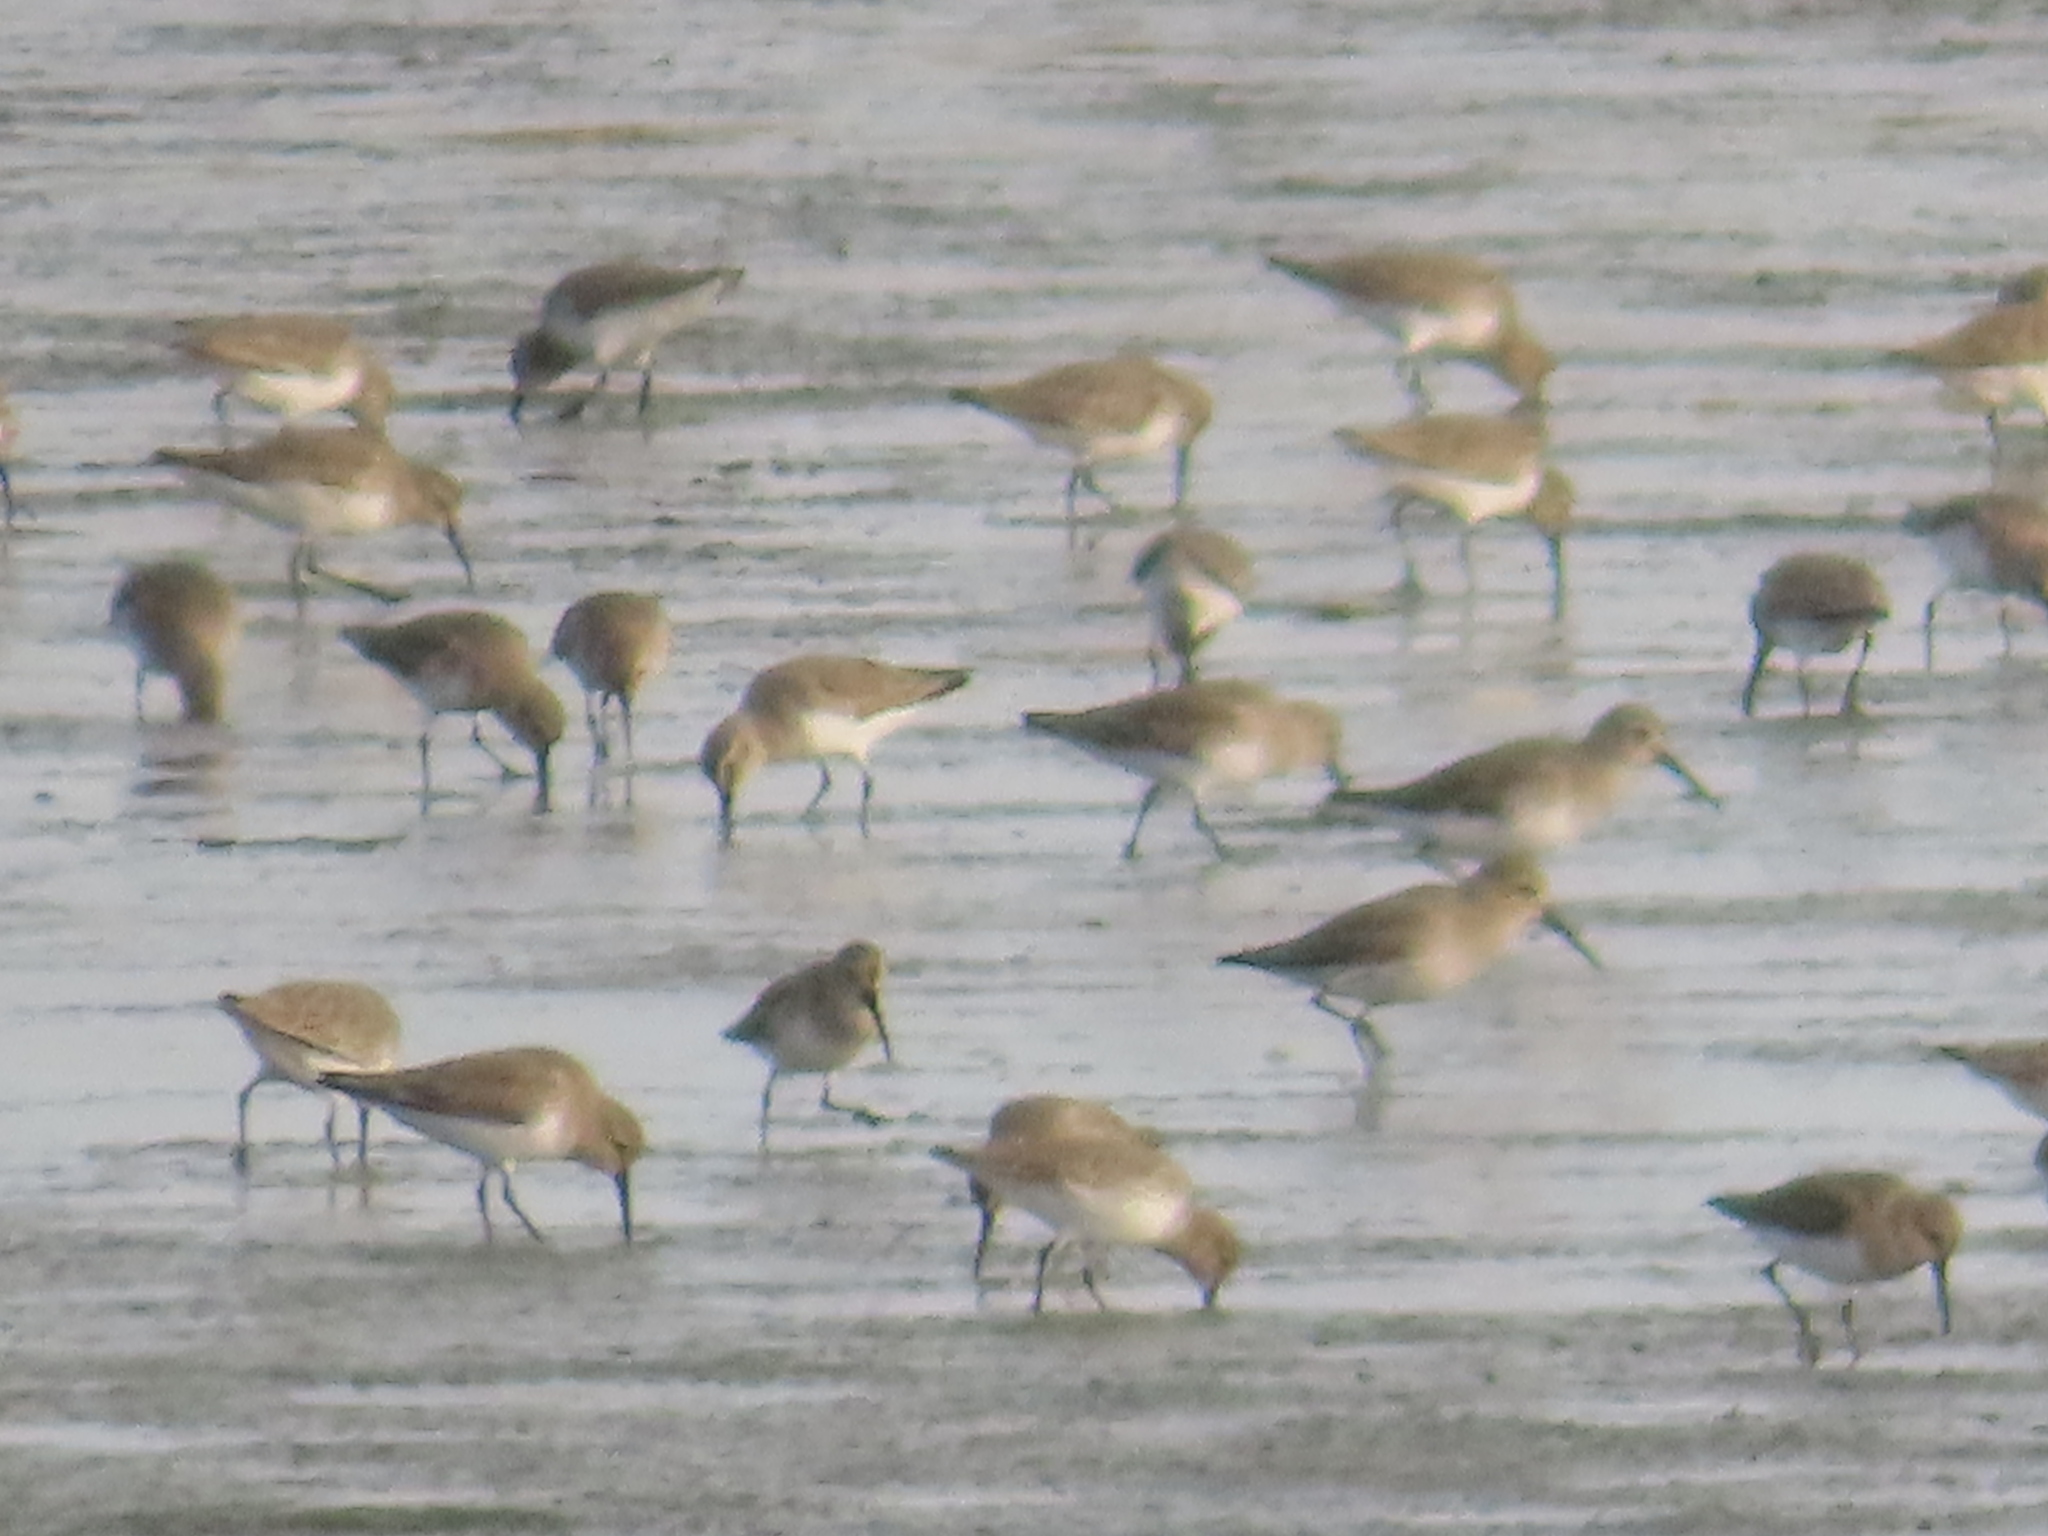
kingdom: Animalia
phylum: Chordata
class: Aves
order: Charadriiformes
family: Scolopacidae
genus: Calidris
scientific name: Calidris alpina
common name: Dunlin
